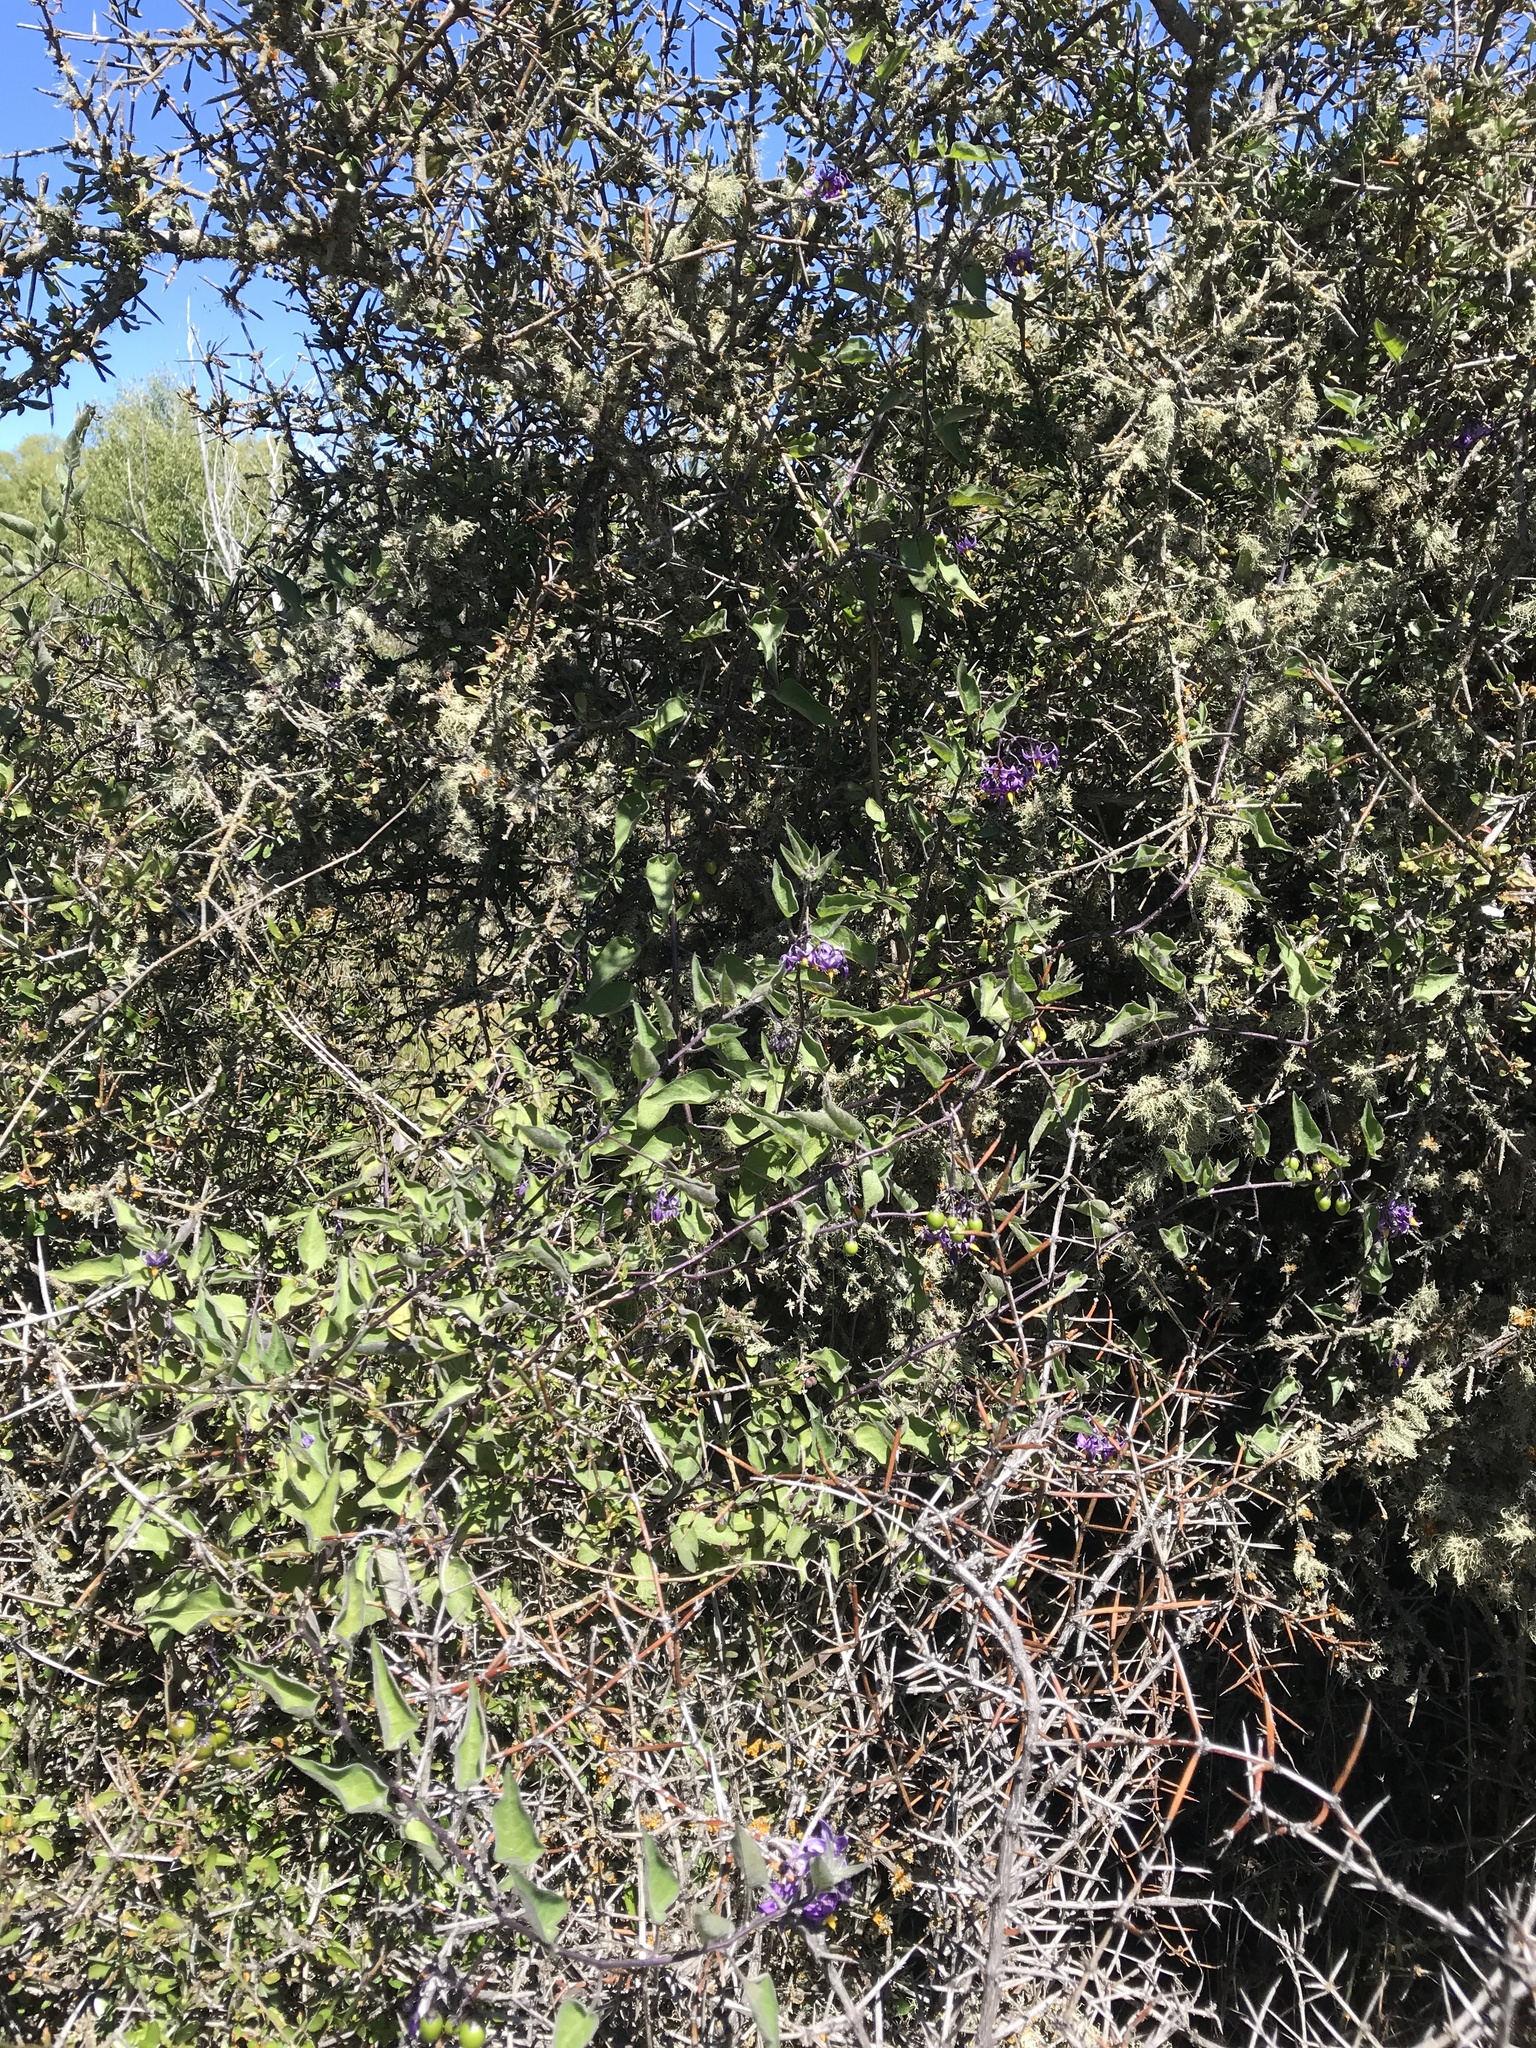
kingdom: Plantae
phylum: Tracheophyta
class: Magnoliopsida
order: Solanales
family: Solanaceae
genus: Solanum
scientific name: Solanum dulcamara
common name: Climbing nightshade
